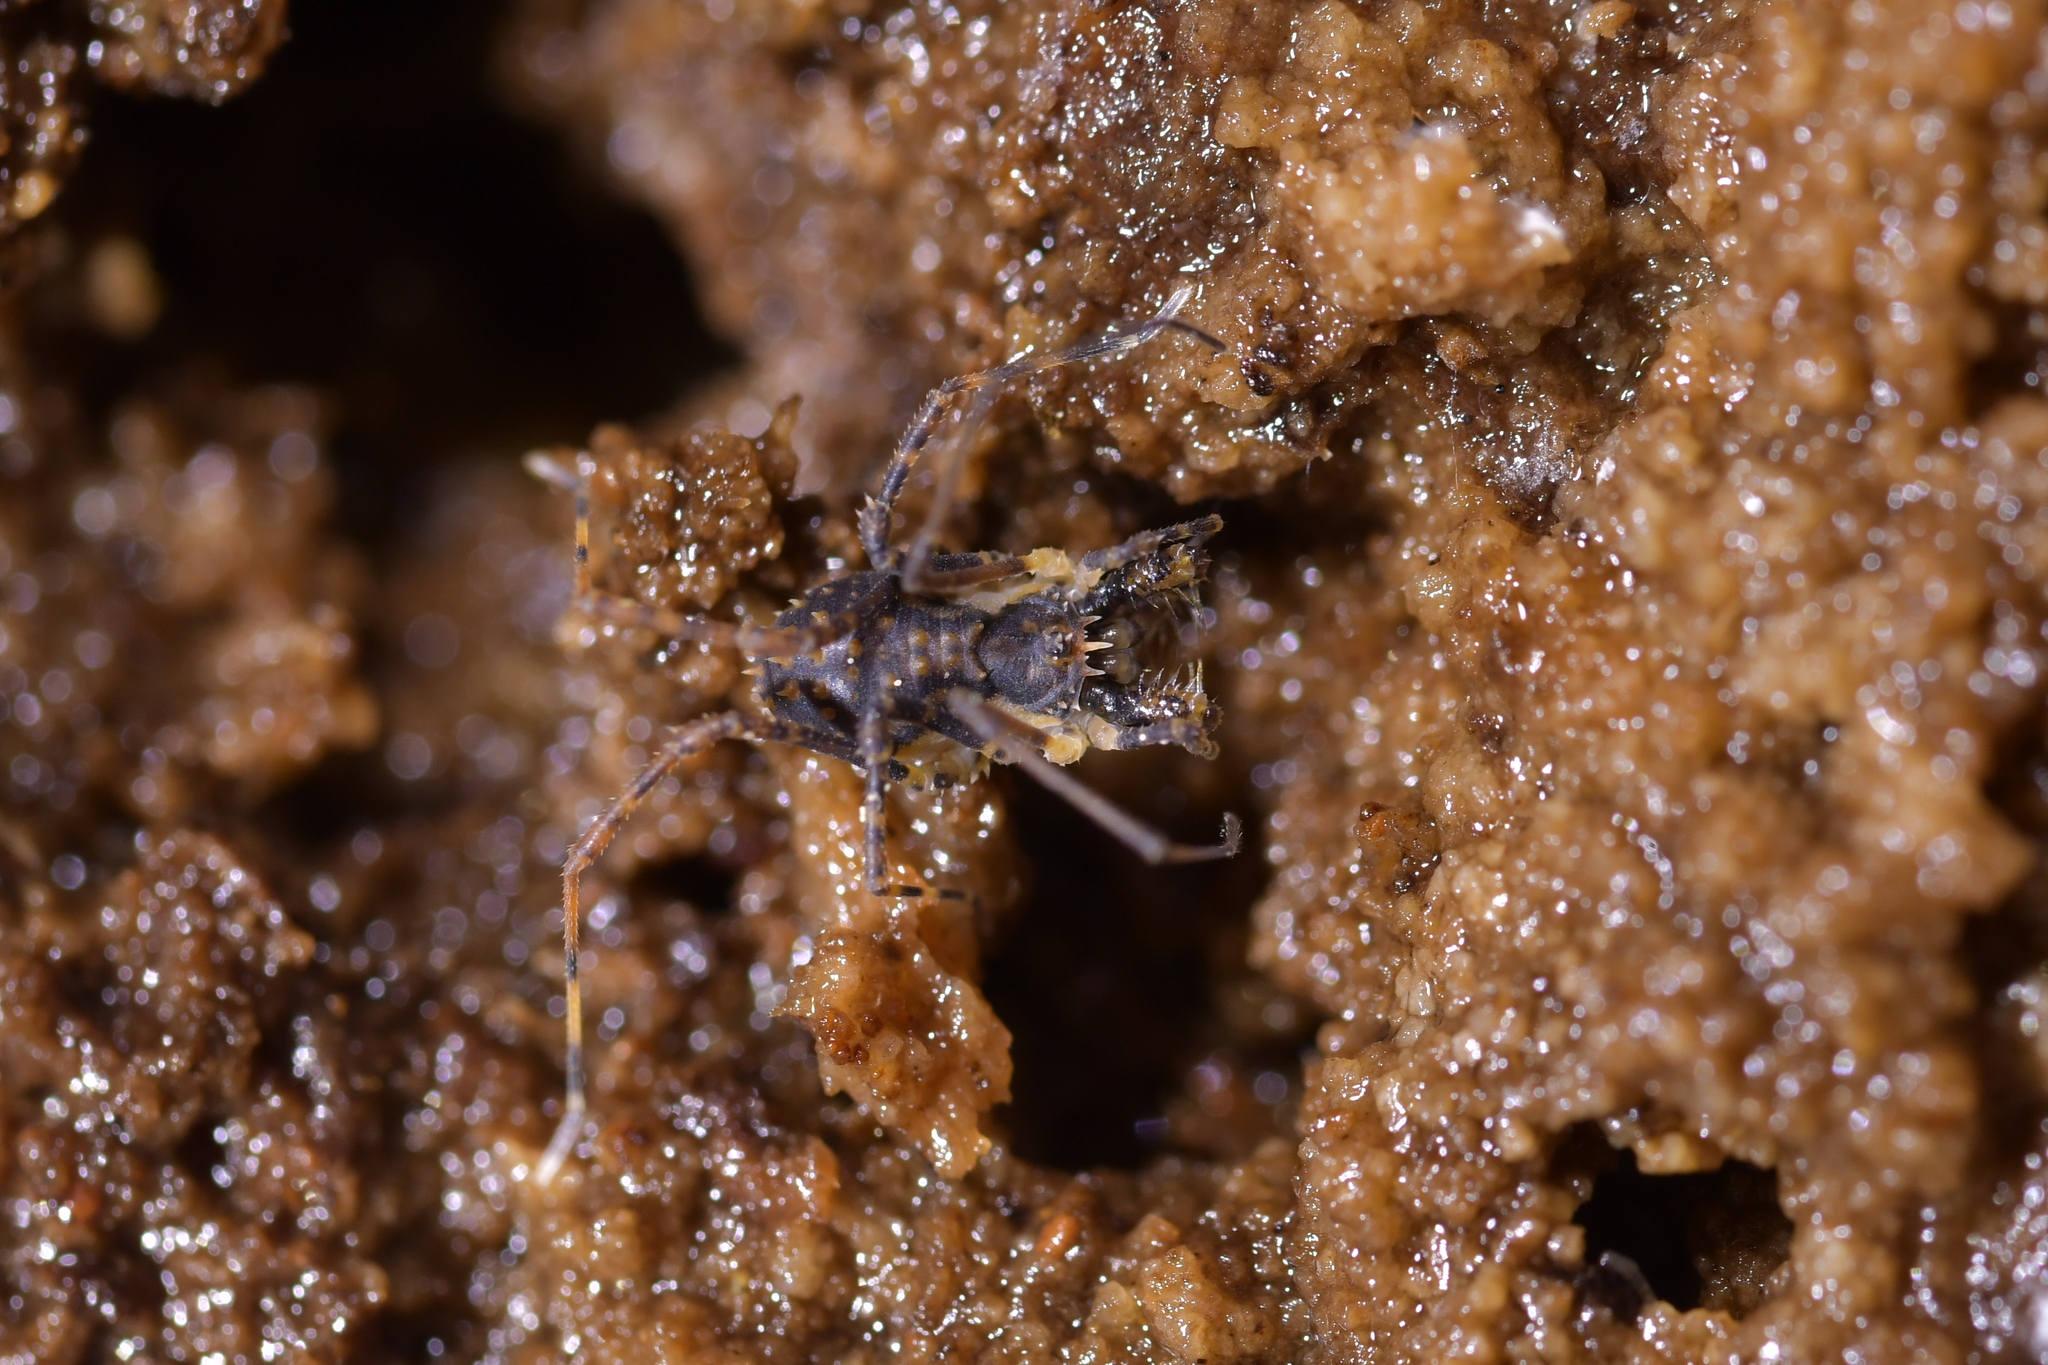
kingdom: Animalia
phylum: Arthropoda
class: Arachnida
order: Opiliones
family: Triaenonychidae
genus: Algidia
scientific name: Algidia nigriflava
